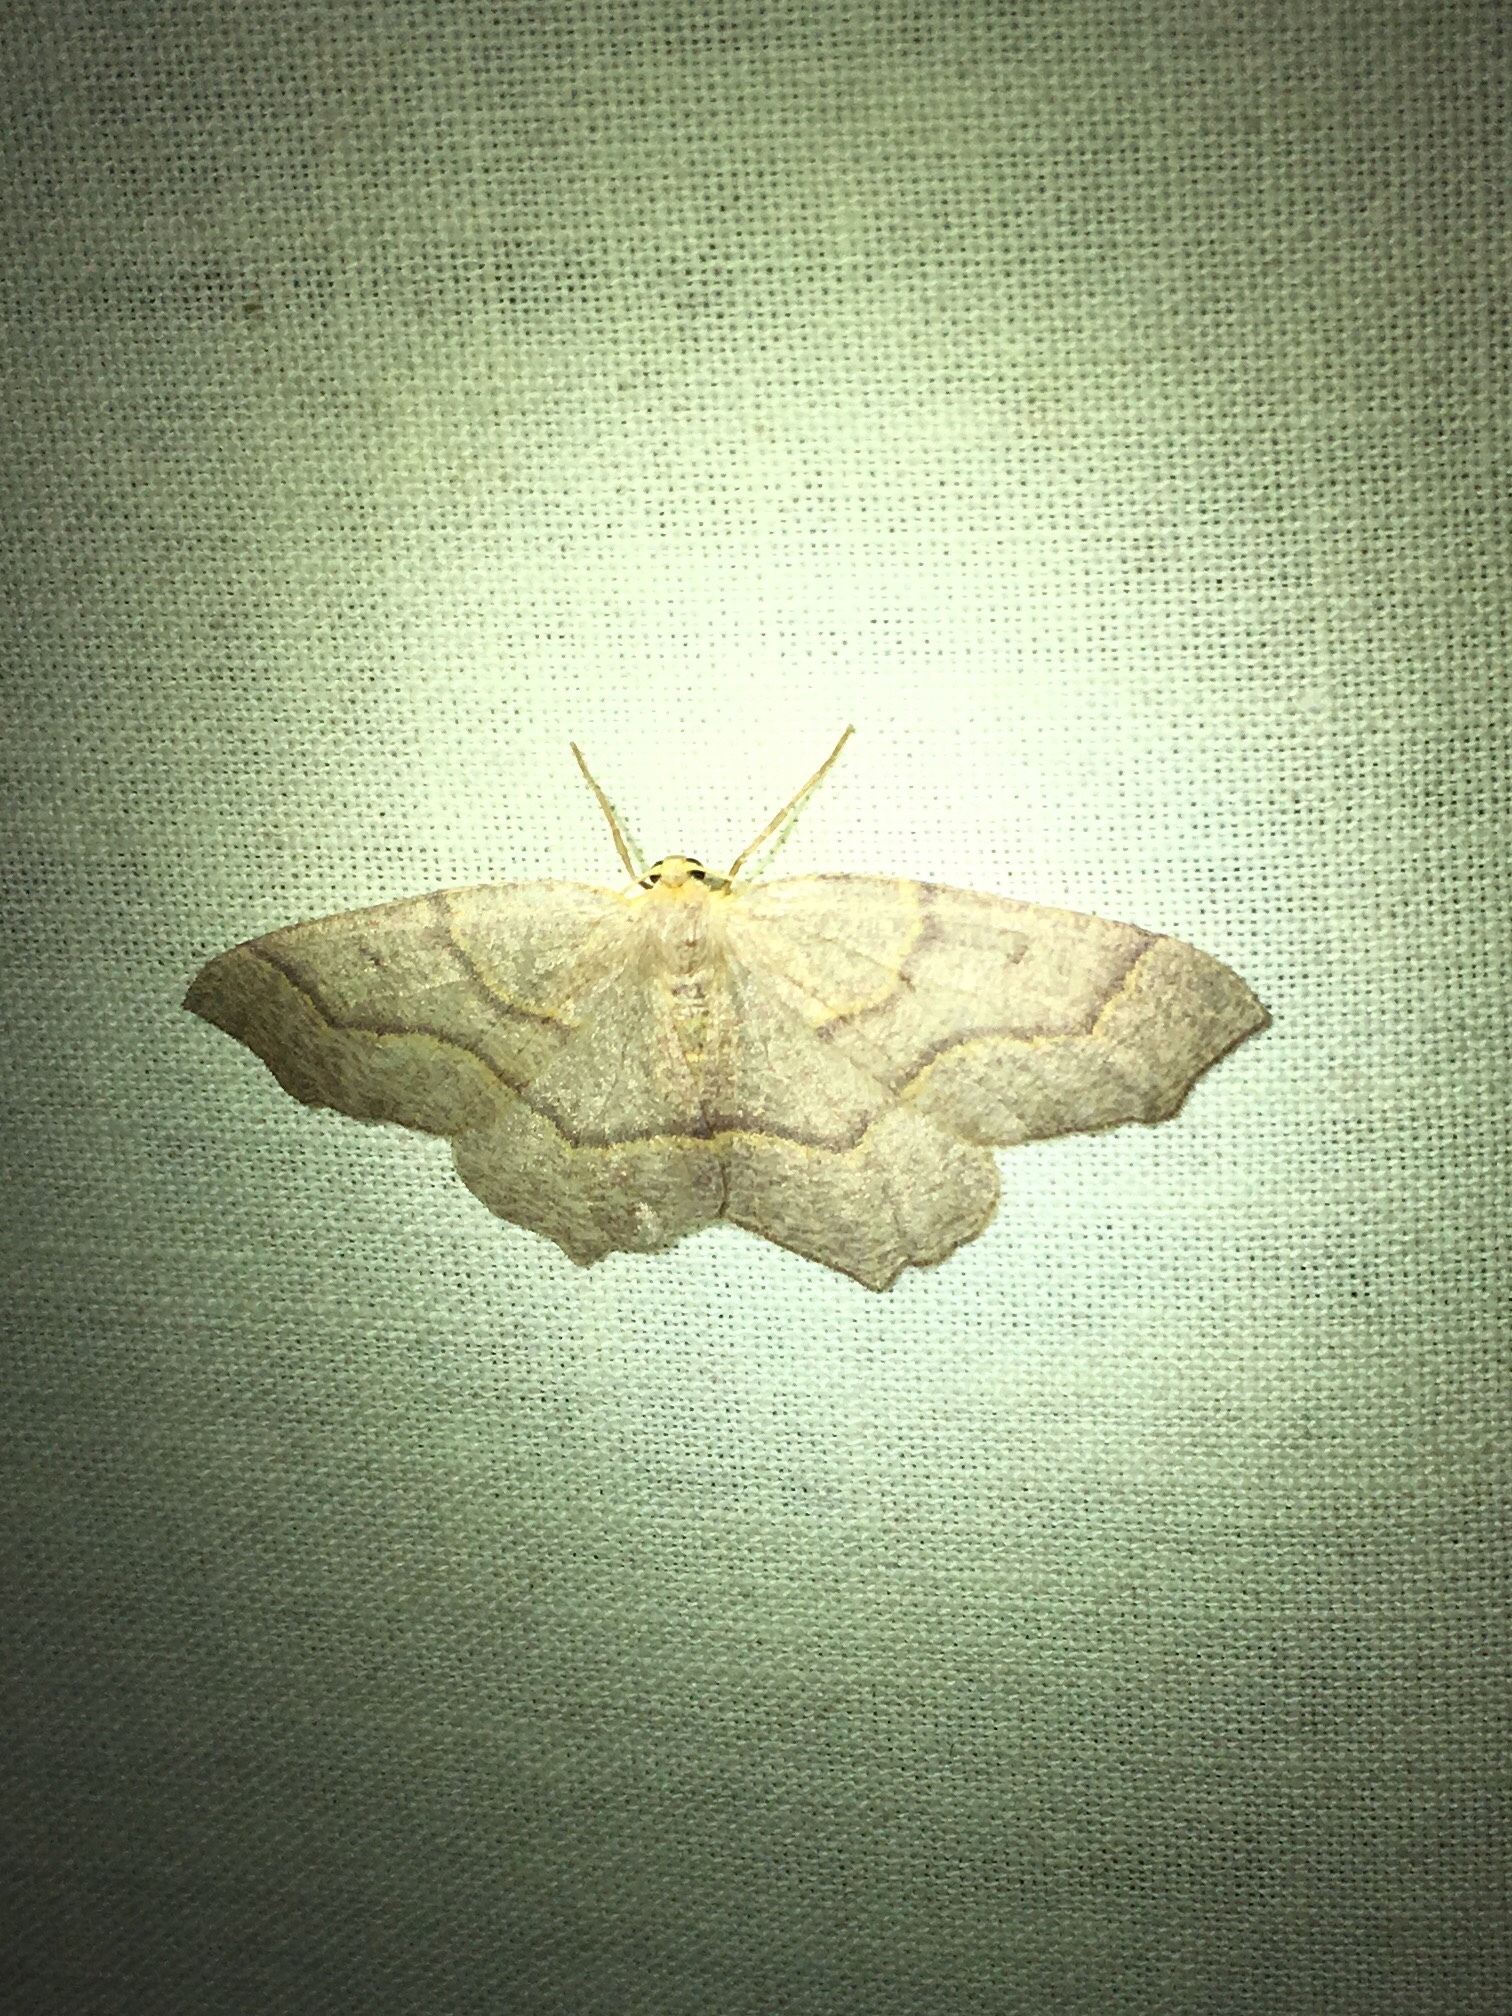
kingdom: Animalia
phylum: Arthropoda
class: Insecta
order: Lepidoptera
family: Geometridae
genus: Lambdina
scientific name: Lambdina fiscellaria
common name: Hemlock looper
